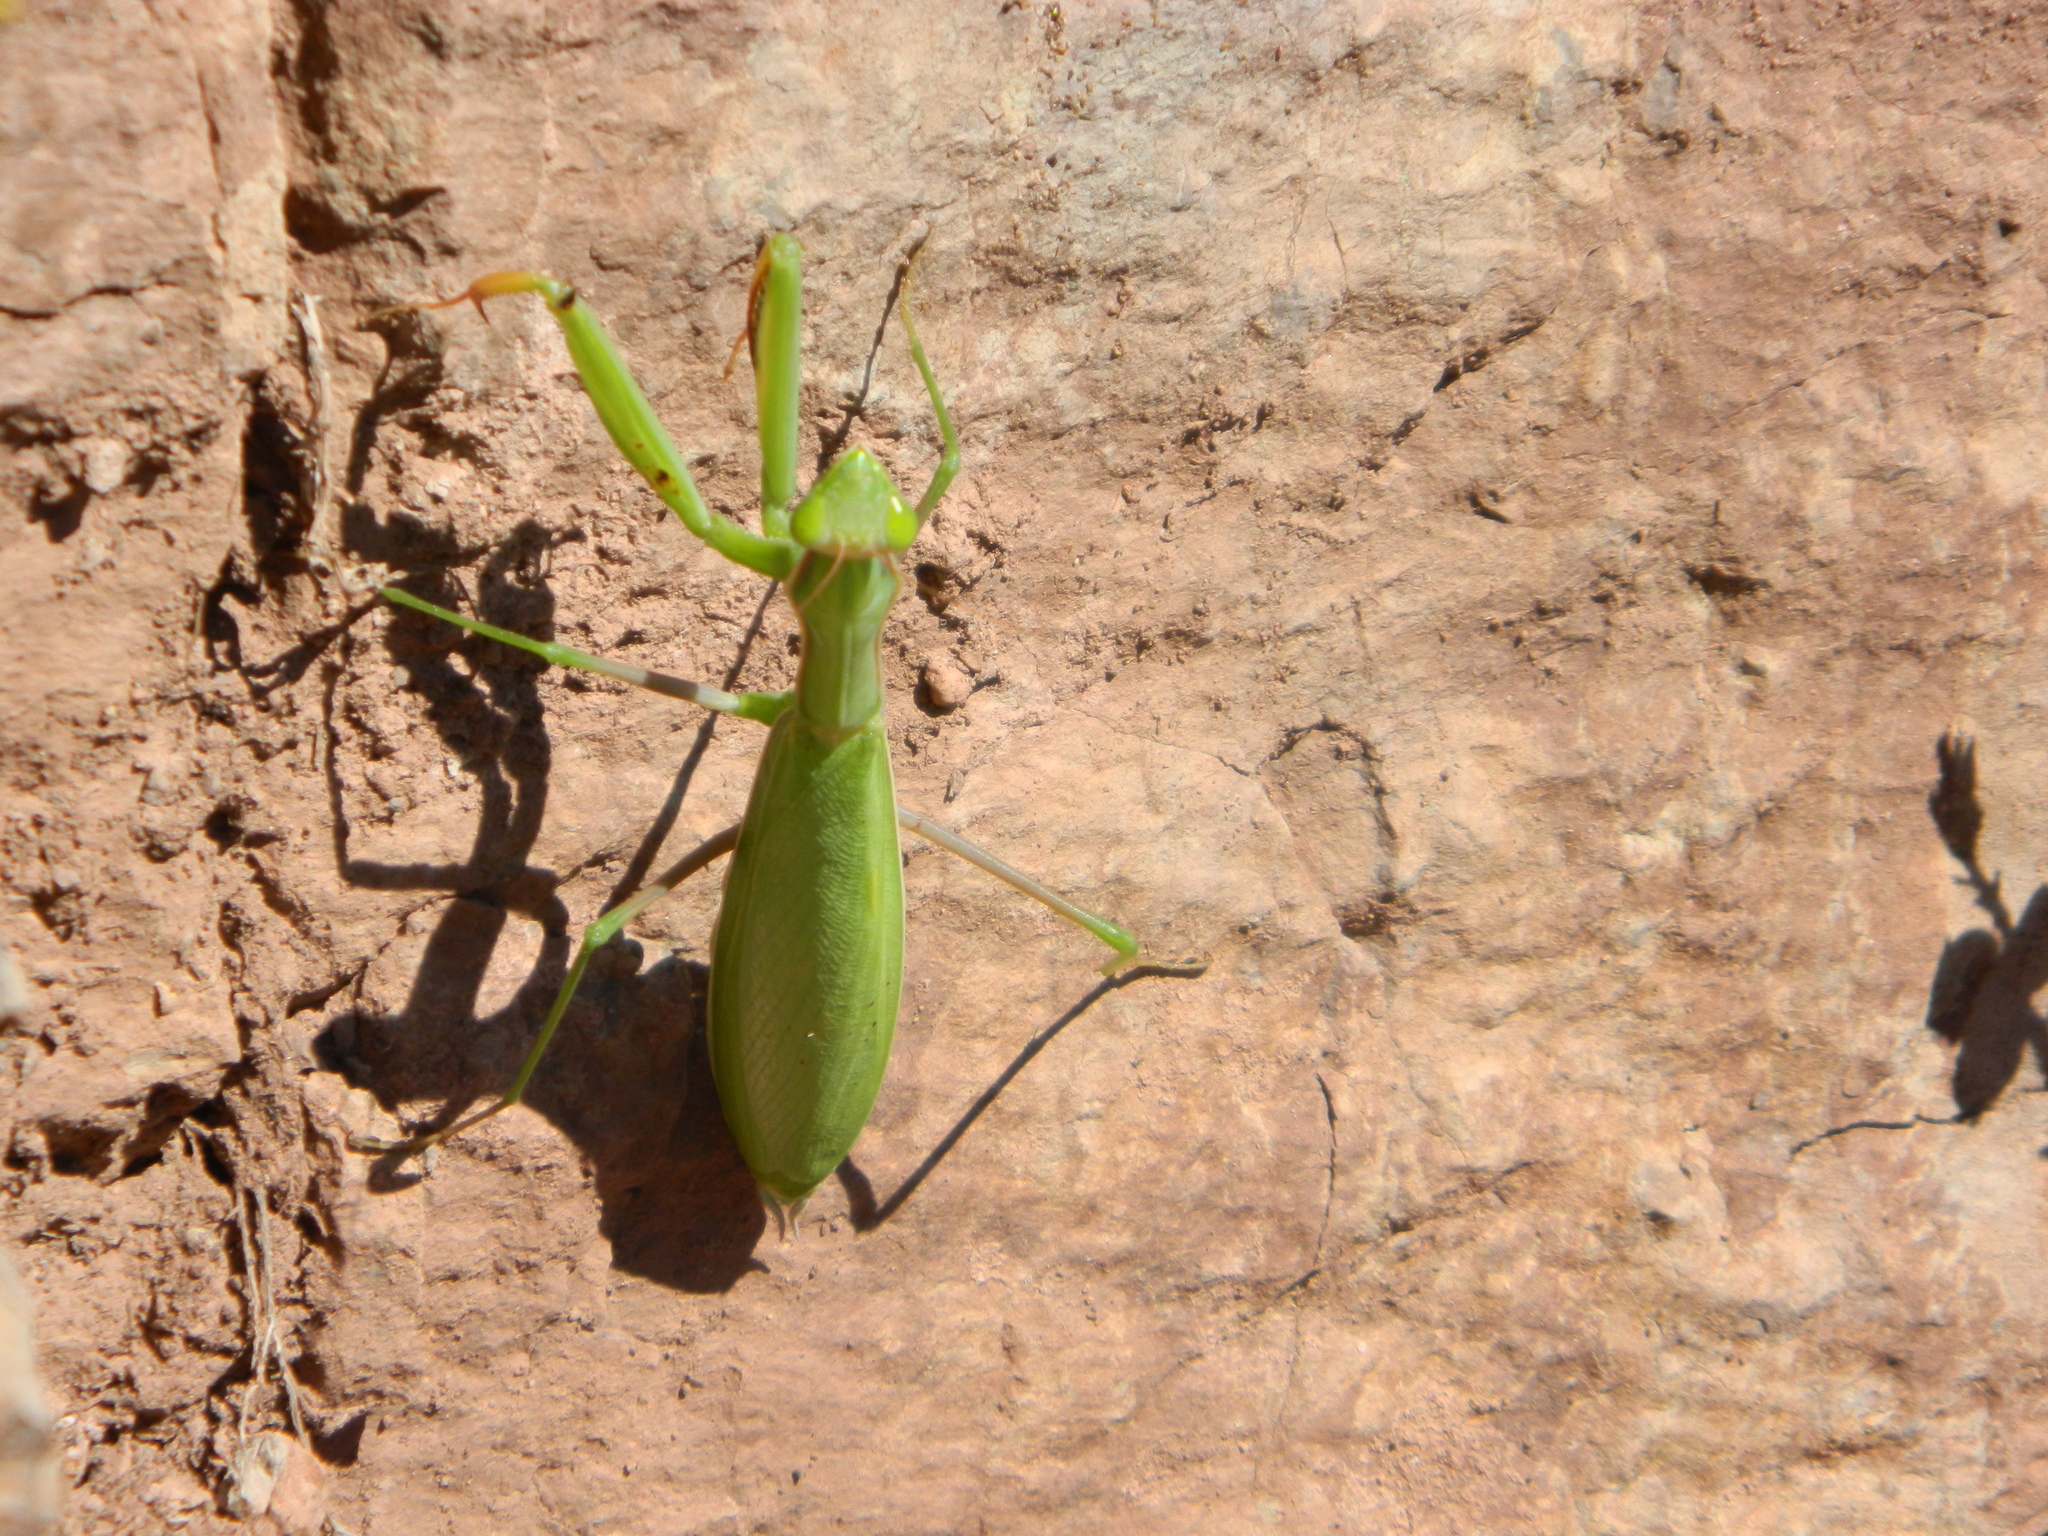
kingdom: Animalia
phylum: Arthropoda
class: Insecta
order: Mantodea
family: Mantidae
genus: Mantis
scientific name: Mantis religiosa
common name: Praying mantis
